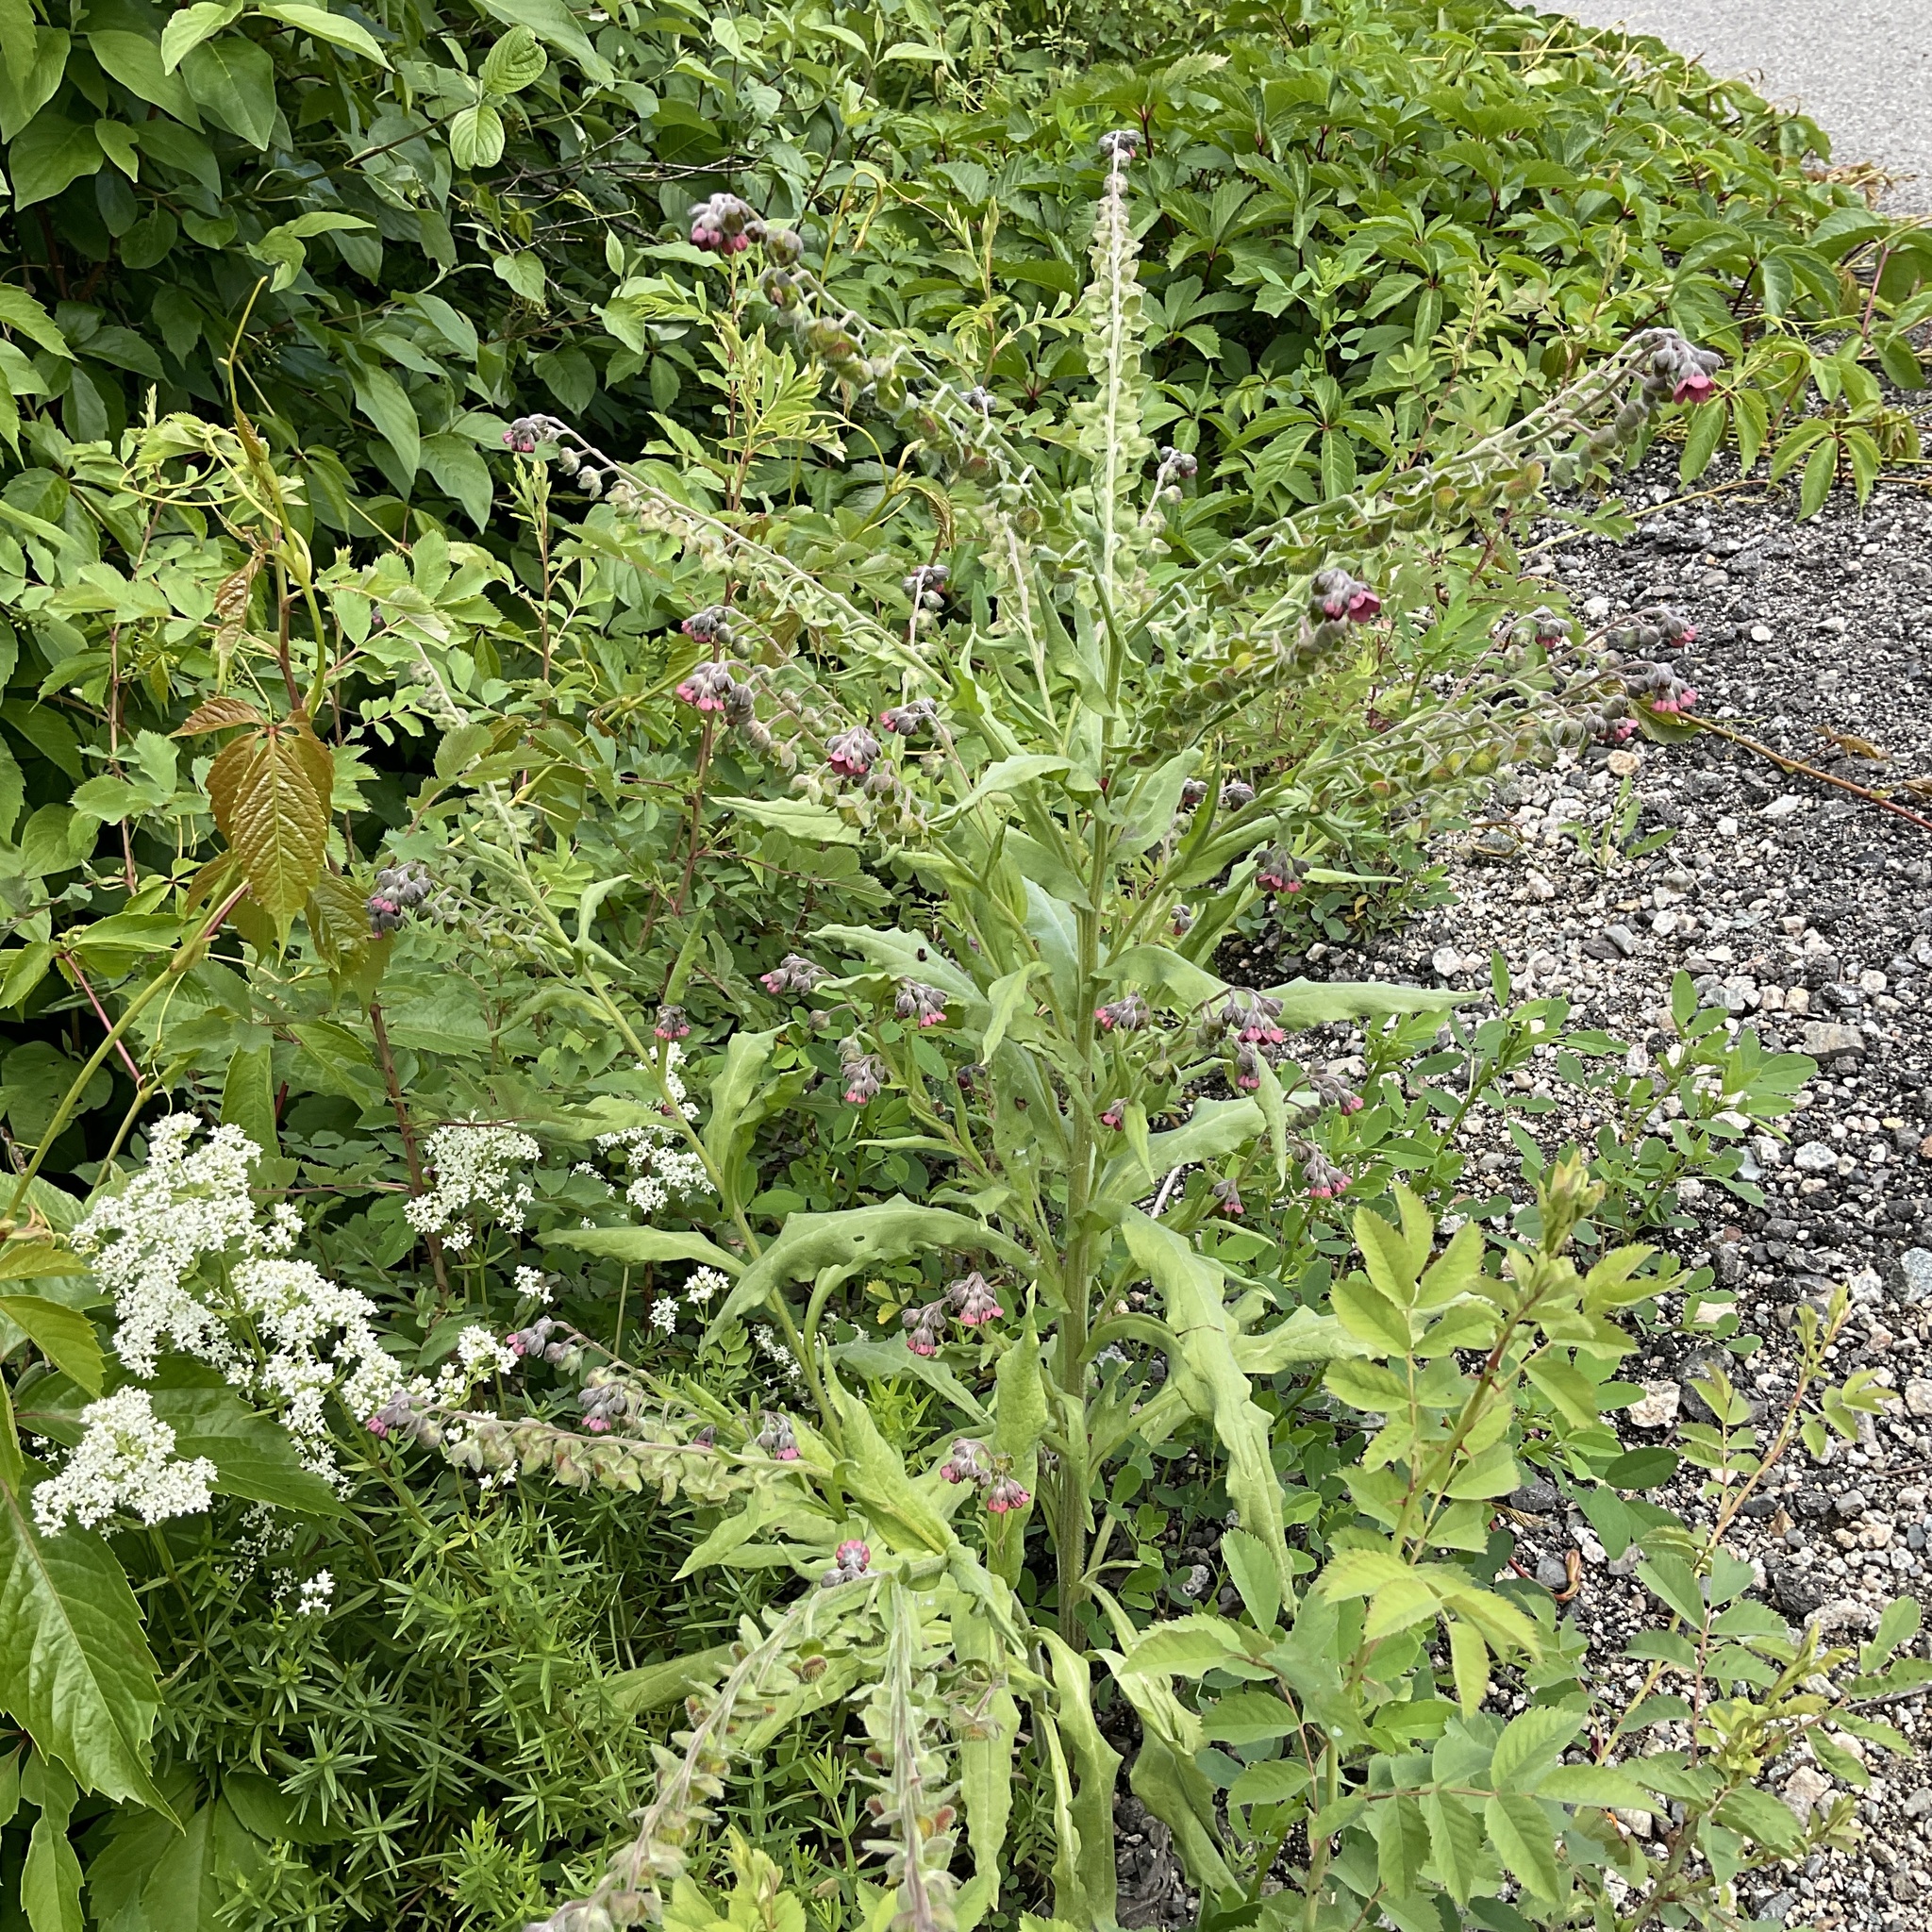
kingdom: Plantae
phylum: Tracheophyta
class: Magnoliopsida
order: Boraginales
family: Boraginaceae
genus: Cynoglossum
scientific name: Cynoglossum officinale
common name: Hound's-tongue
